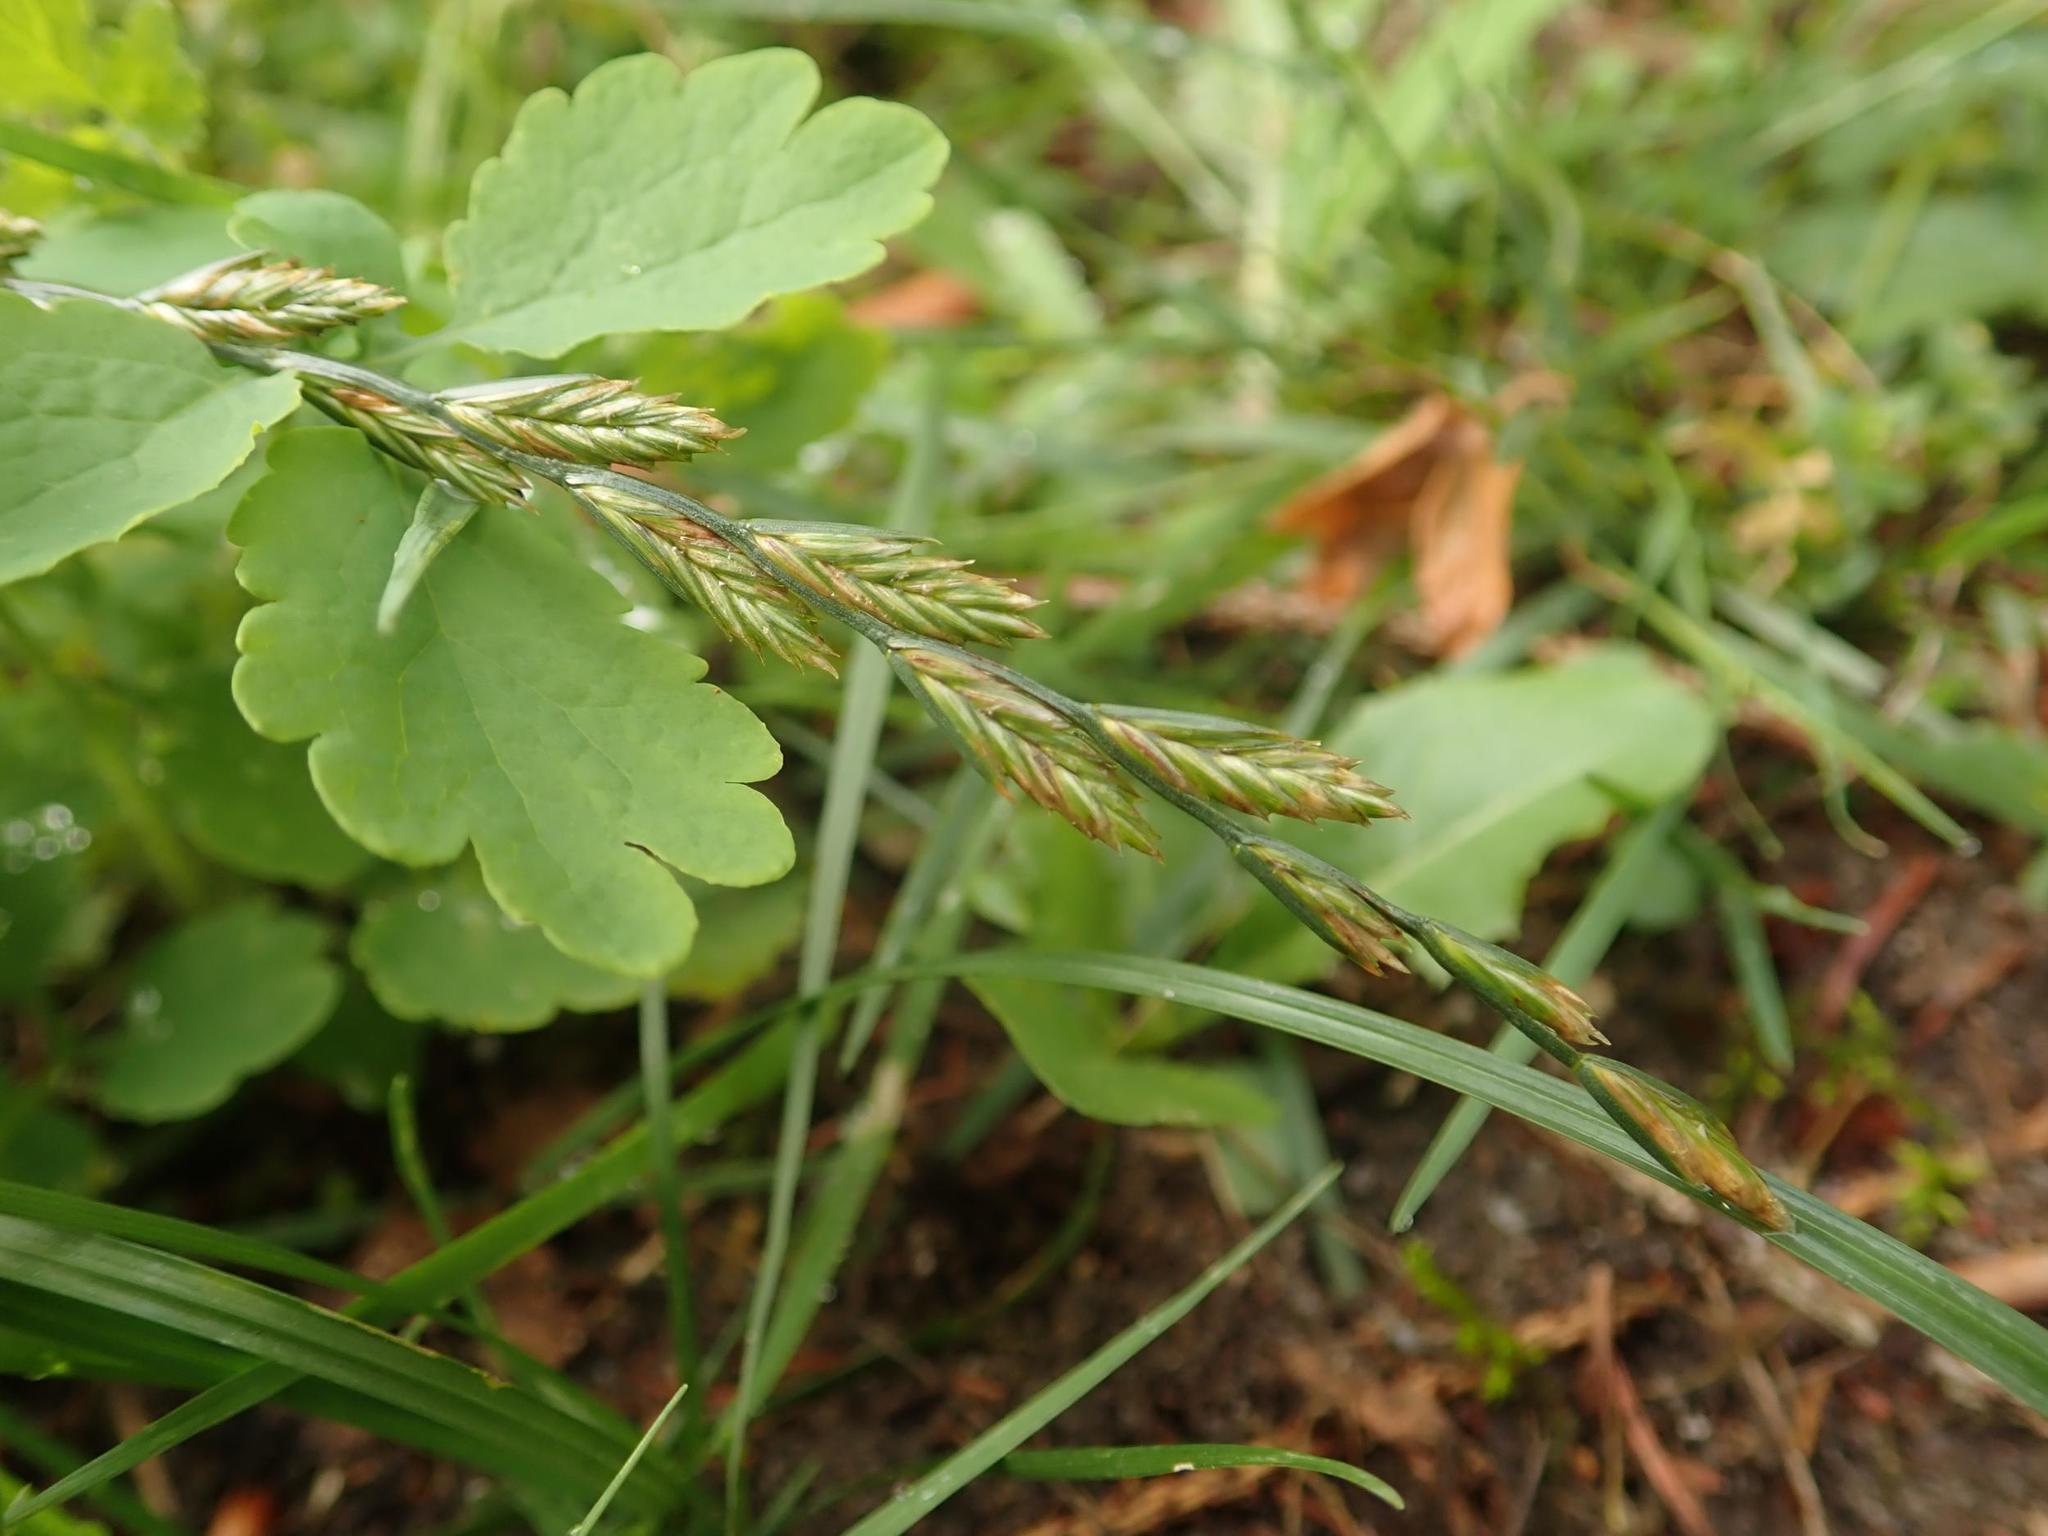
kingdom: Plantae
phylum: Tracheophyta
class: Liliopsida
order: Poales
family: Poaceae
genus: Lolium
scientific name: Lolium perenne
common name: Perennial ryegrass
